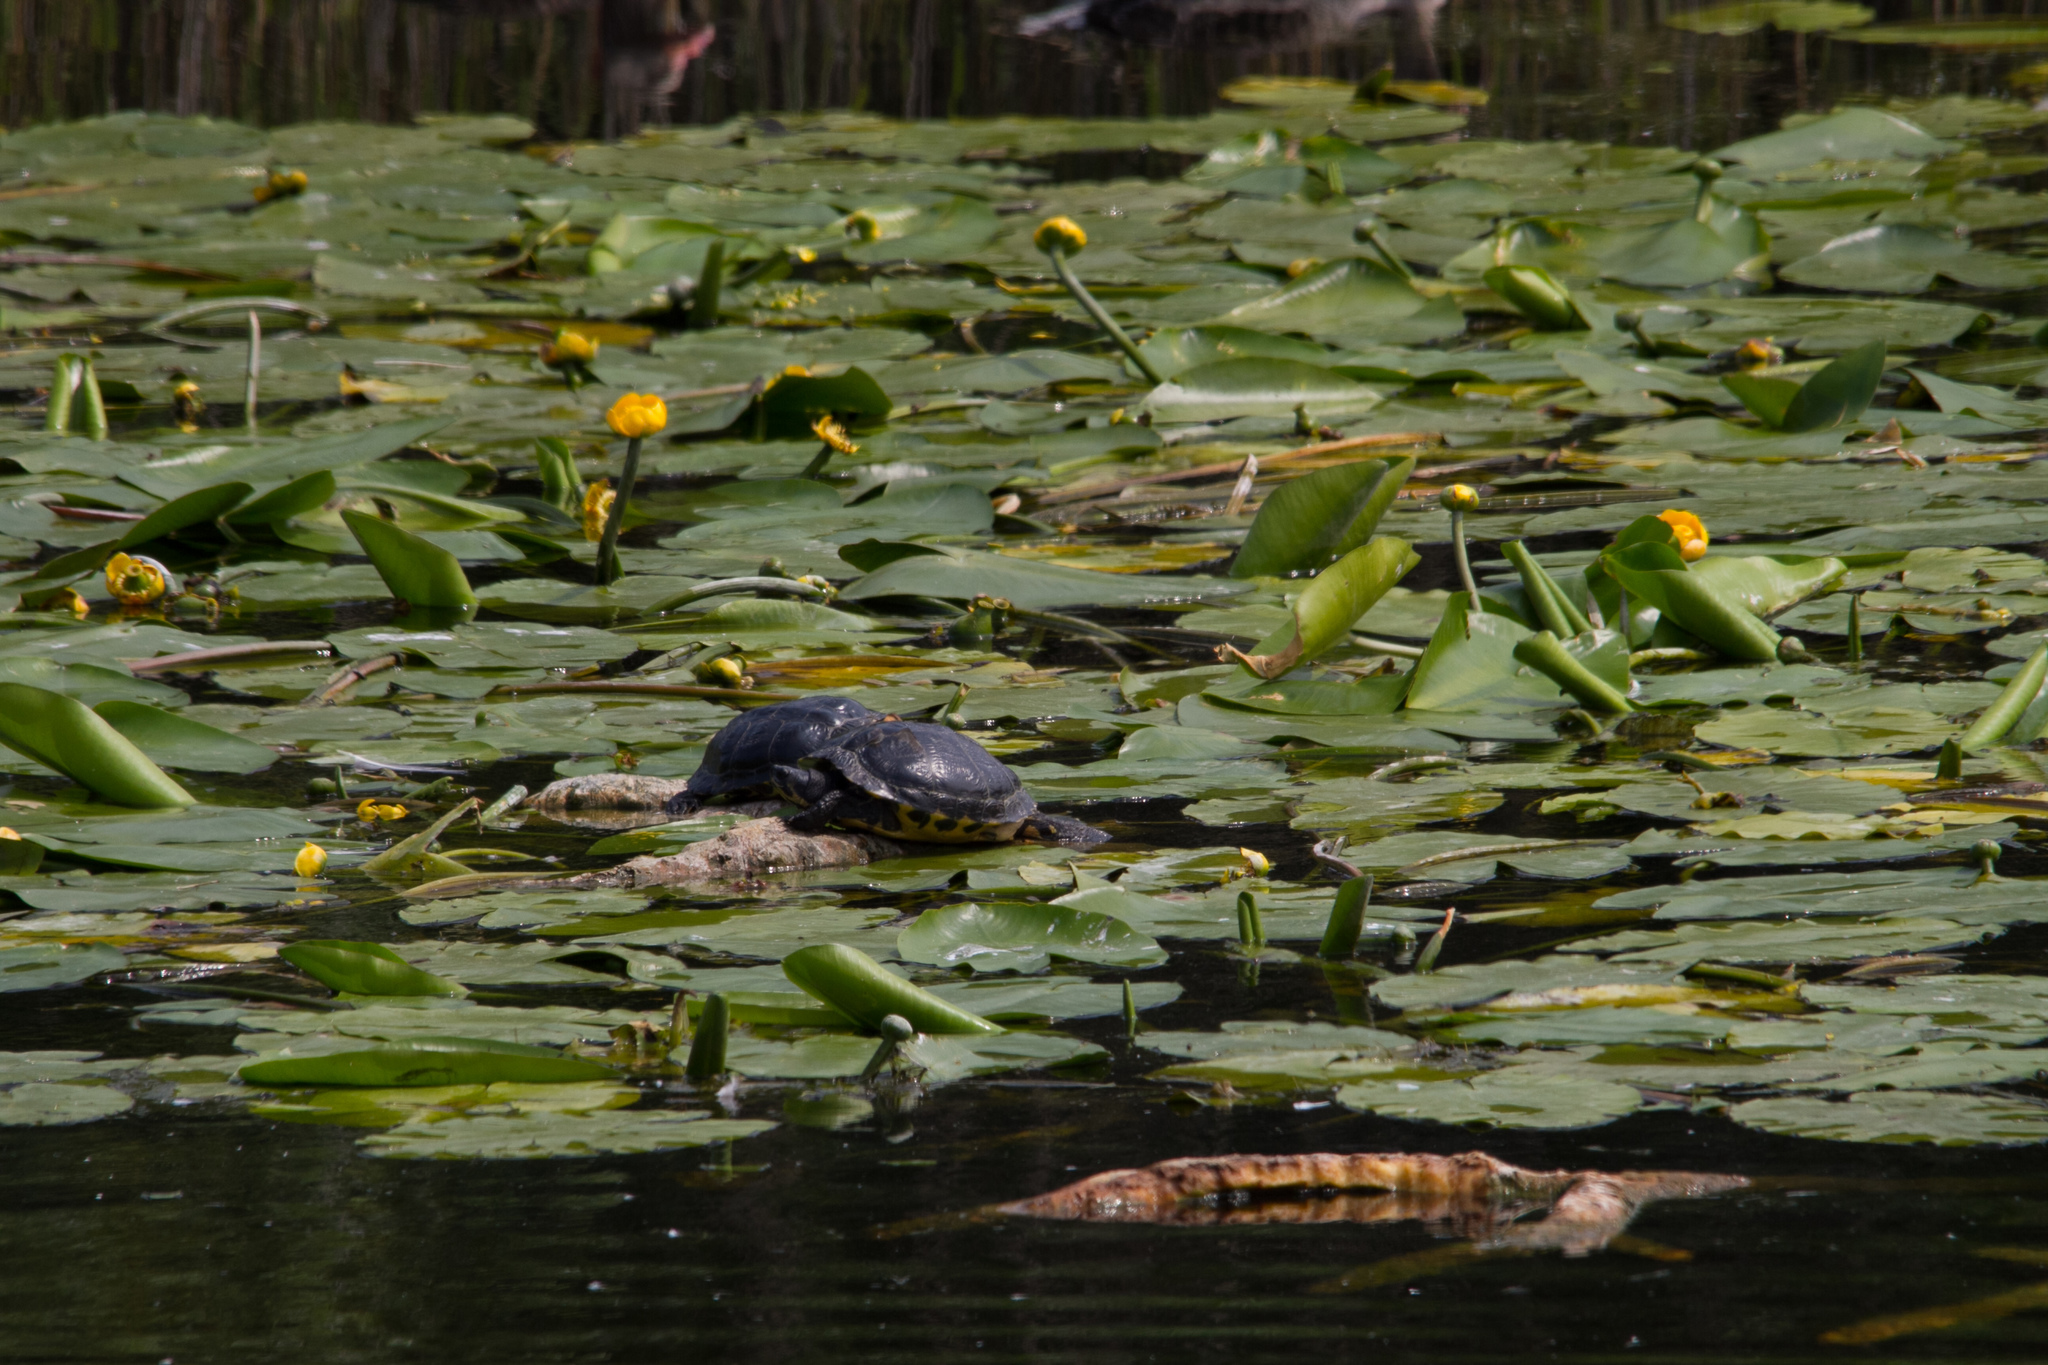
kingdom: Animalia
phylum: Chordata
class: Testudines
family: Emydidae
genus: Trachemys
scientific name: Trachemys scripta
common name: Slider
